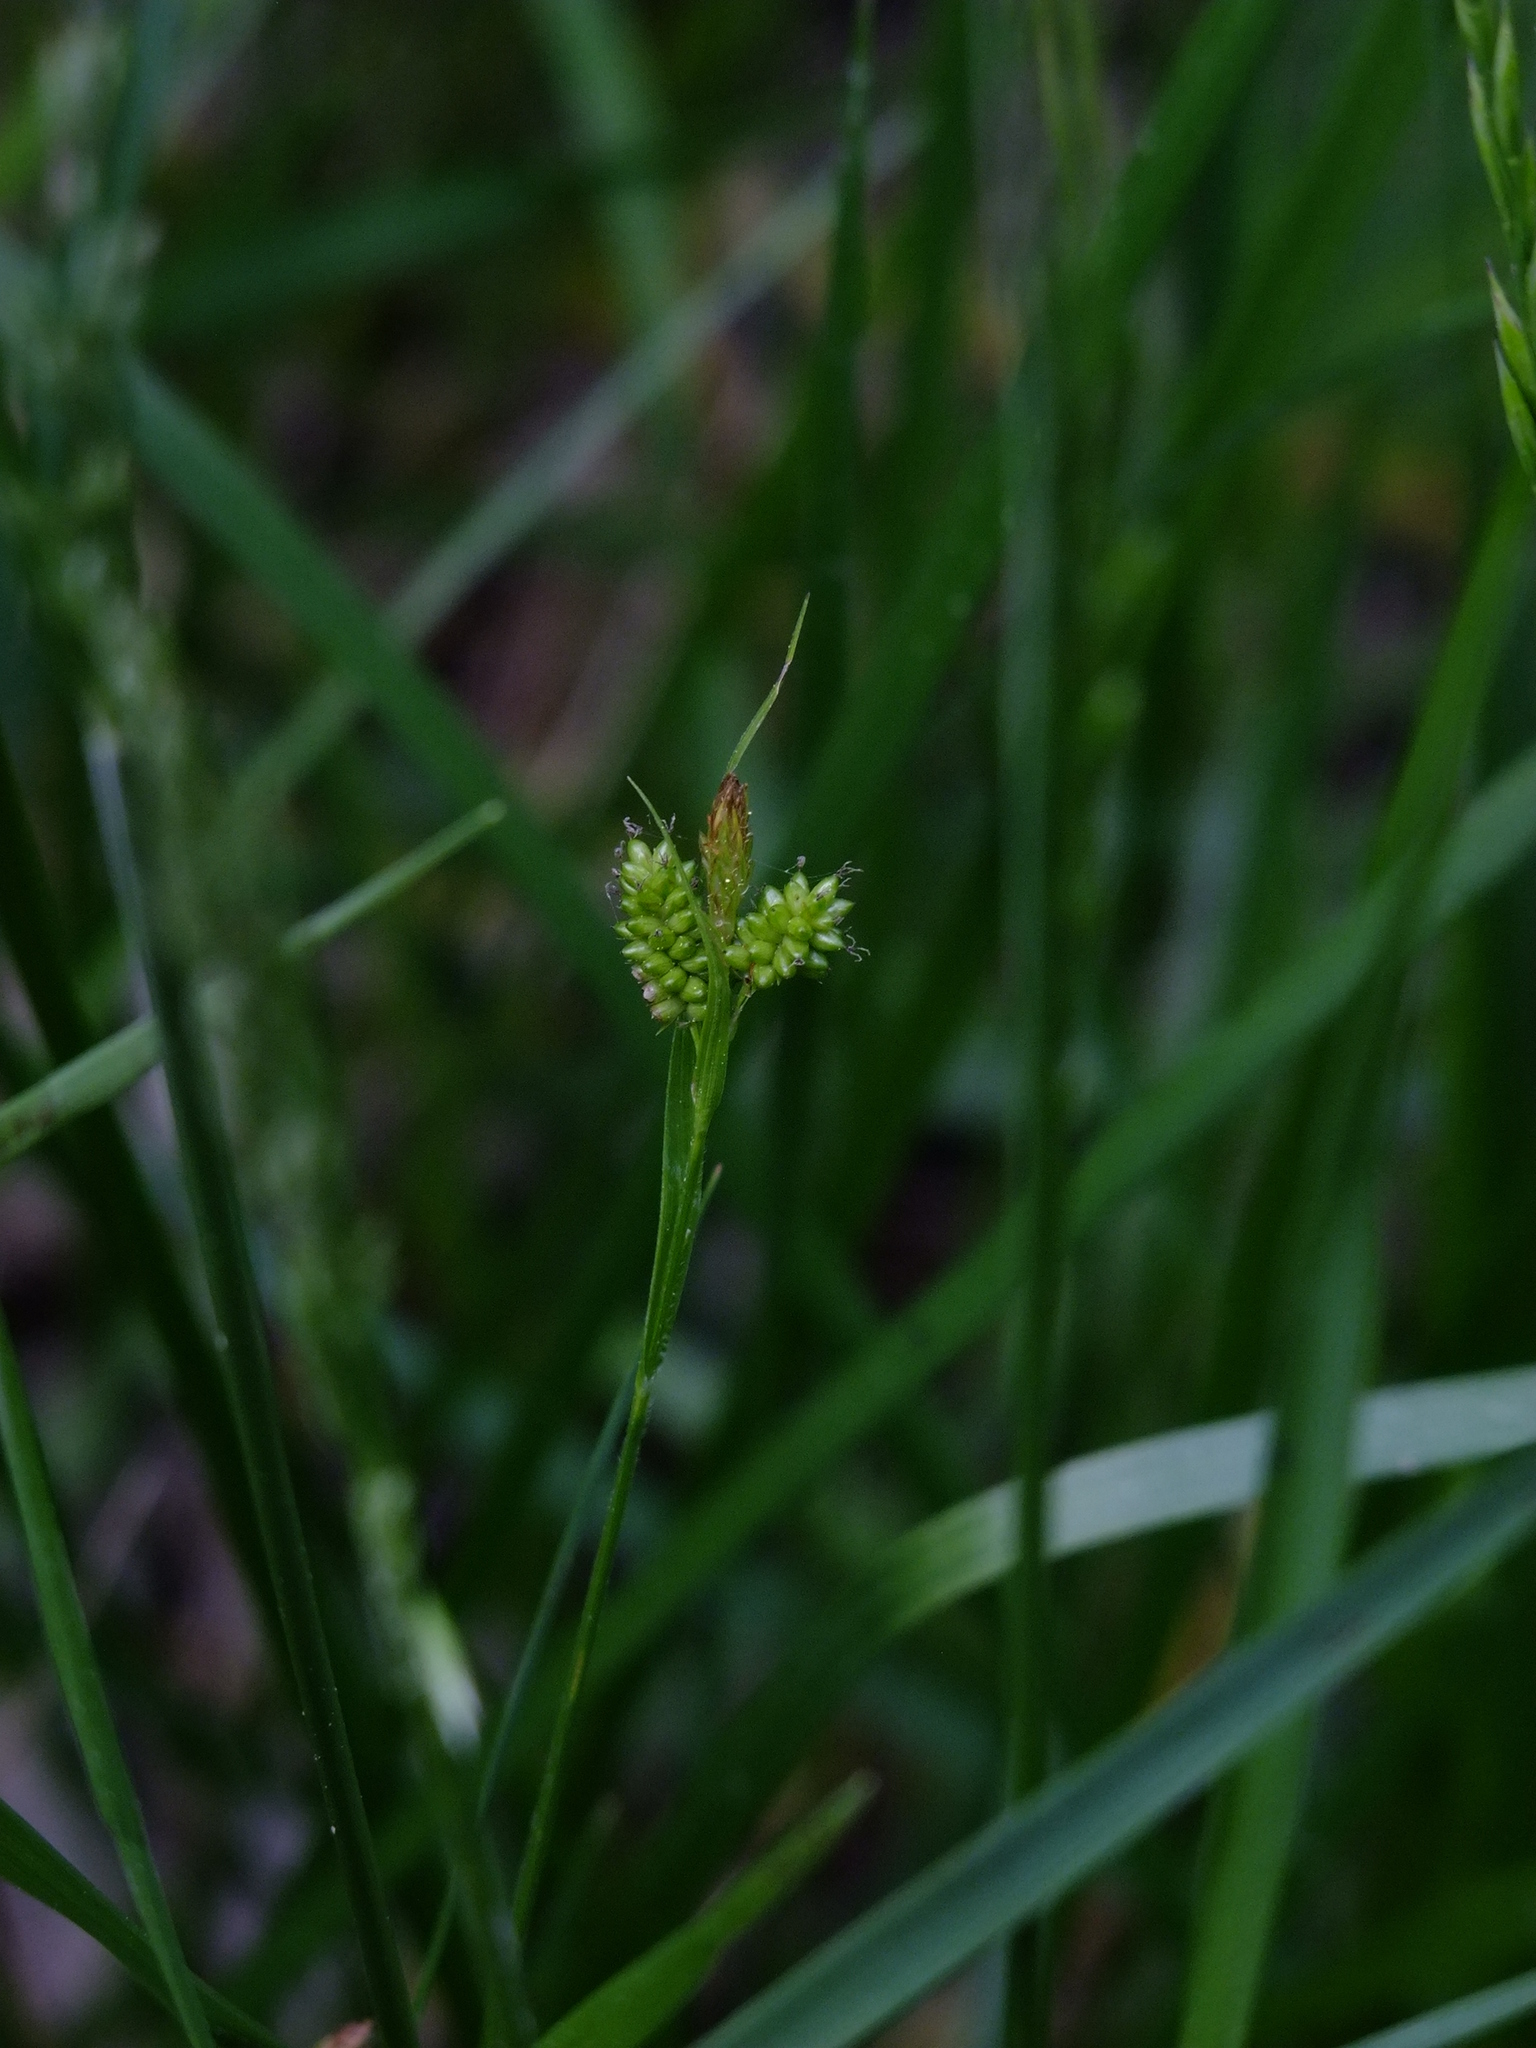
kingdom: Plantae
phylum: Tracheophyta
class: Liliopsida
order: Poales
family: Cyperaceae
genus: Carex
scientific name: Carex pallescens
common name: Pale sedge
